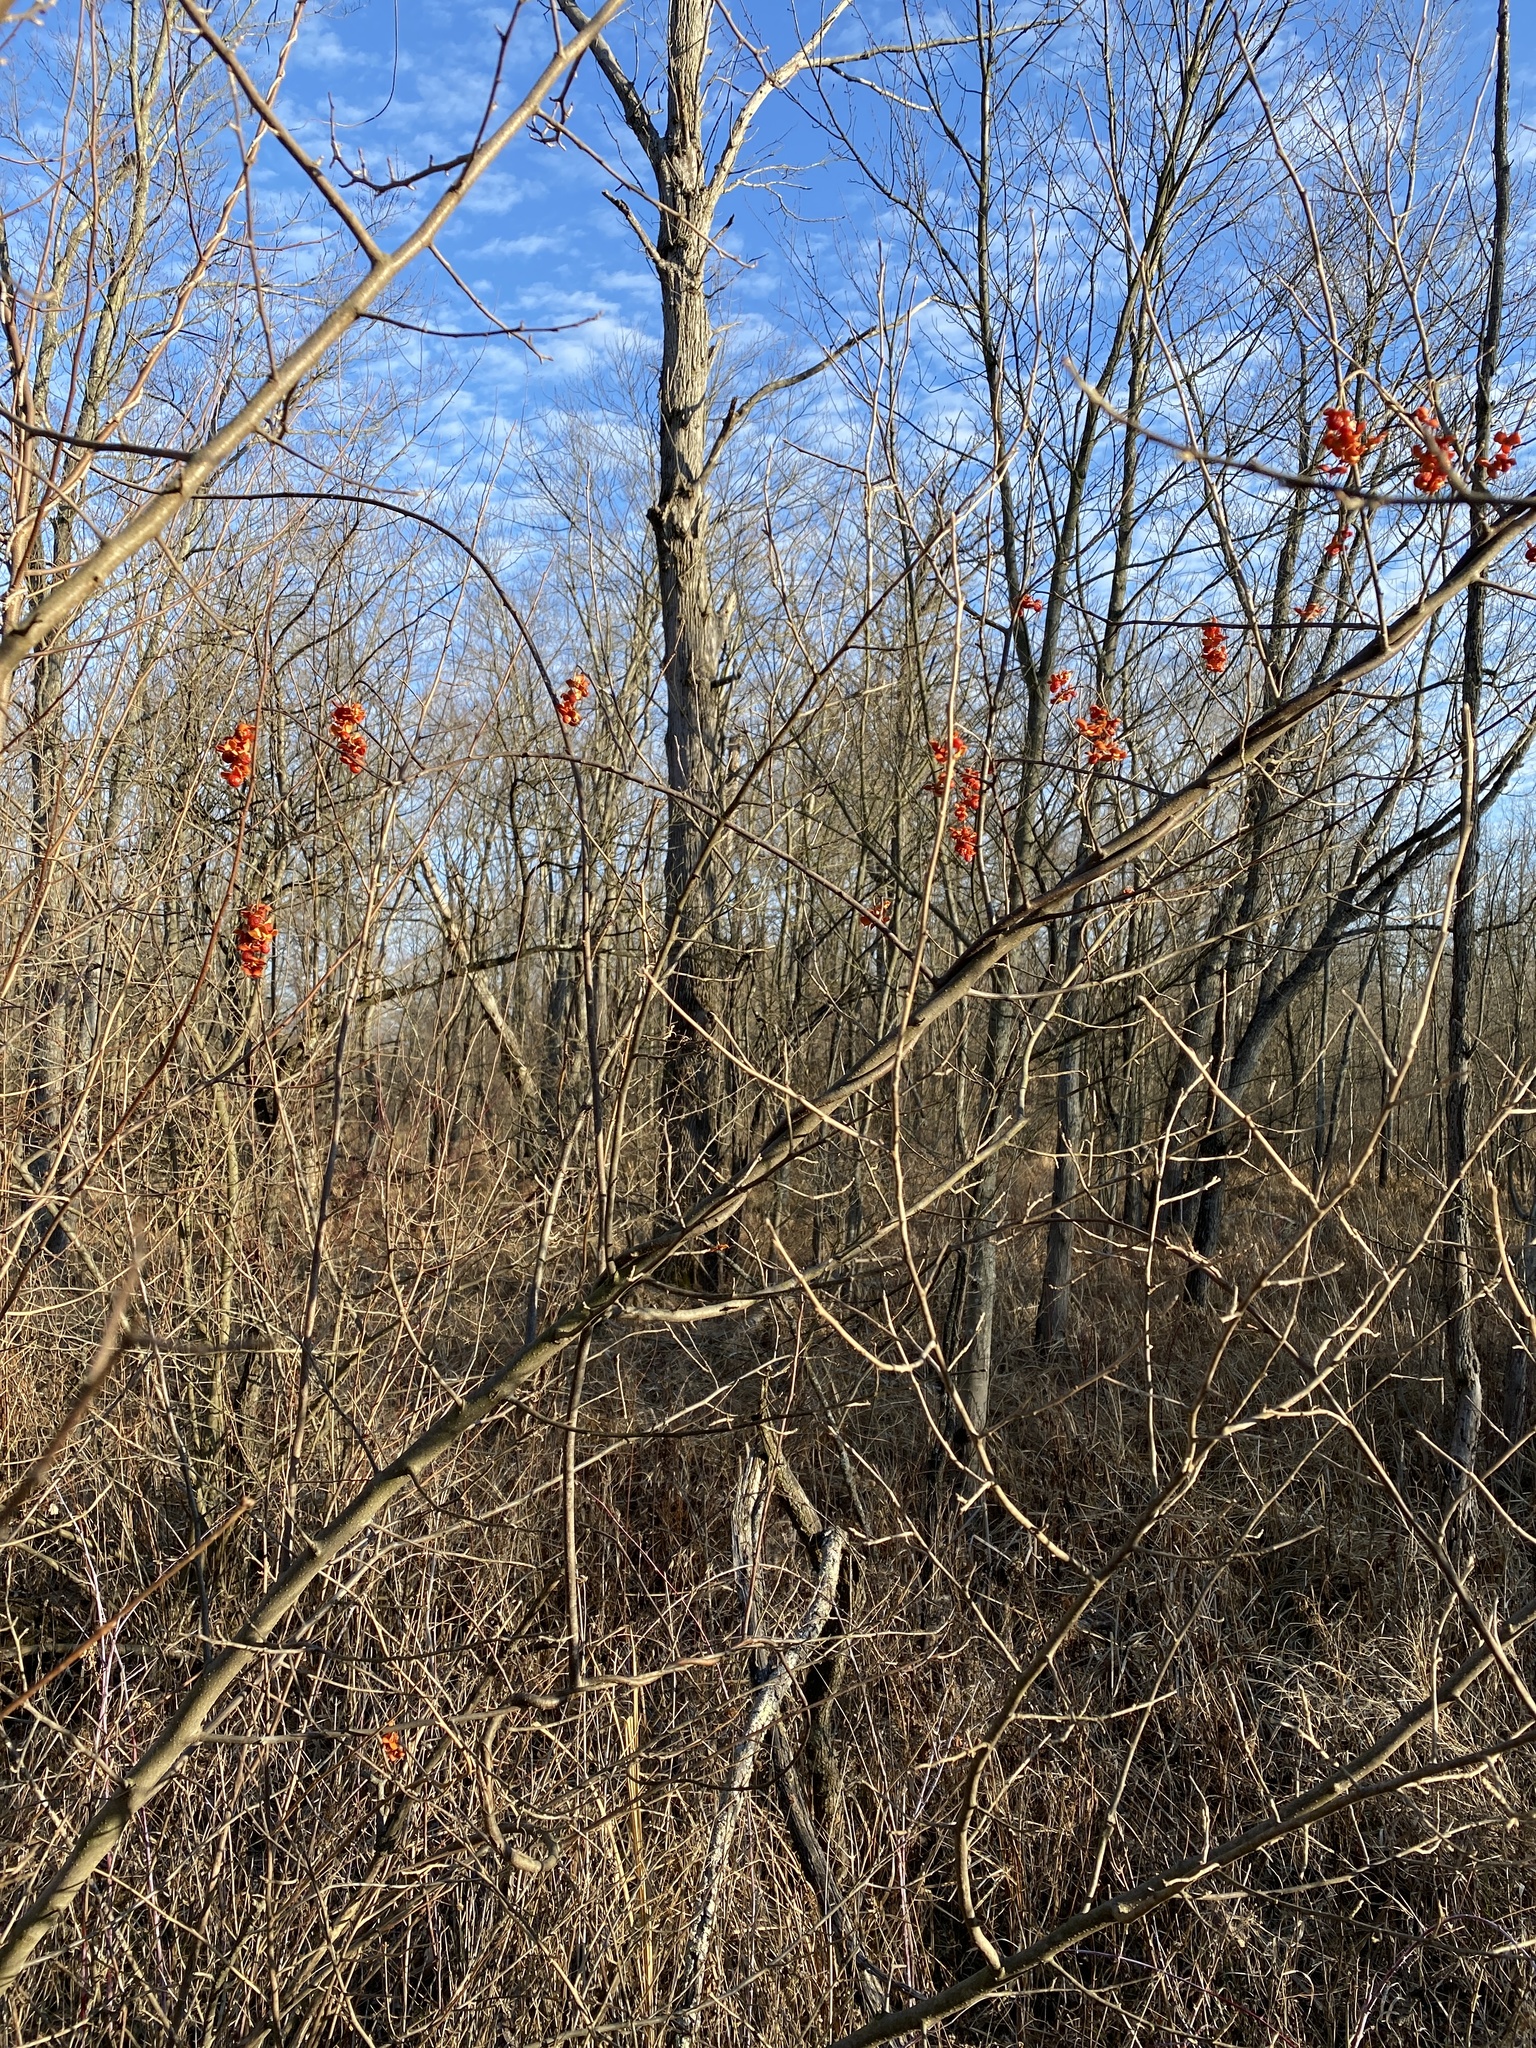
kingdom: Plantae
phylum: Tracheophyta
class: Magnoliopsida
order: Celastrales
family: Celastraceae
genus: Celastrus
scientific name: Celastrus scandens
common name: American bittersweet
